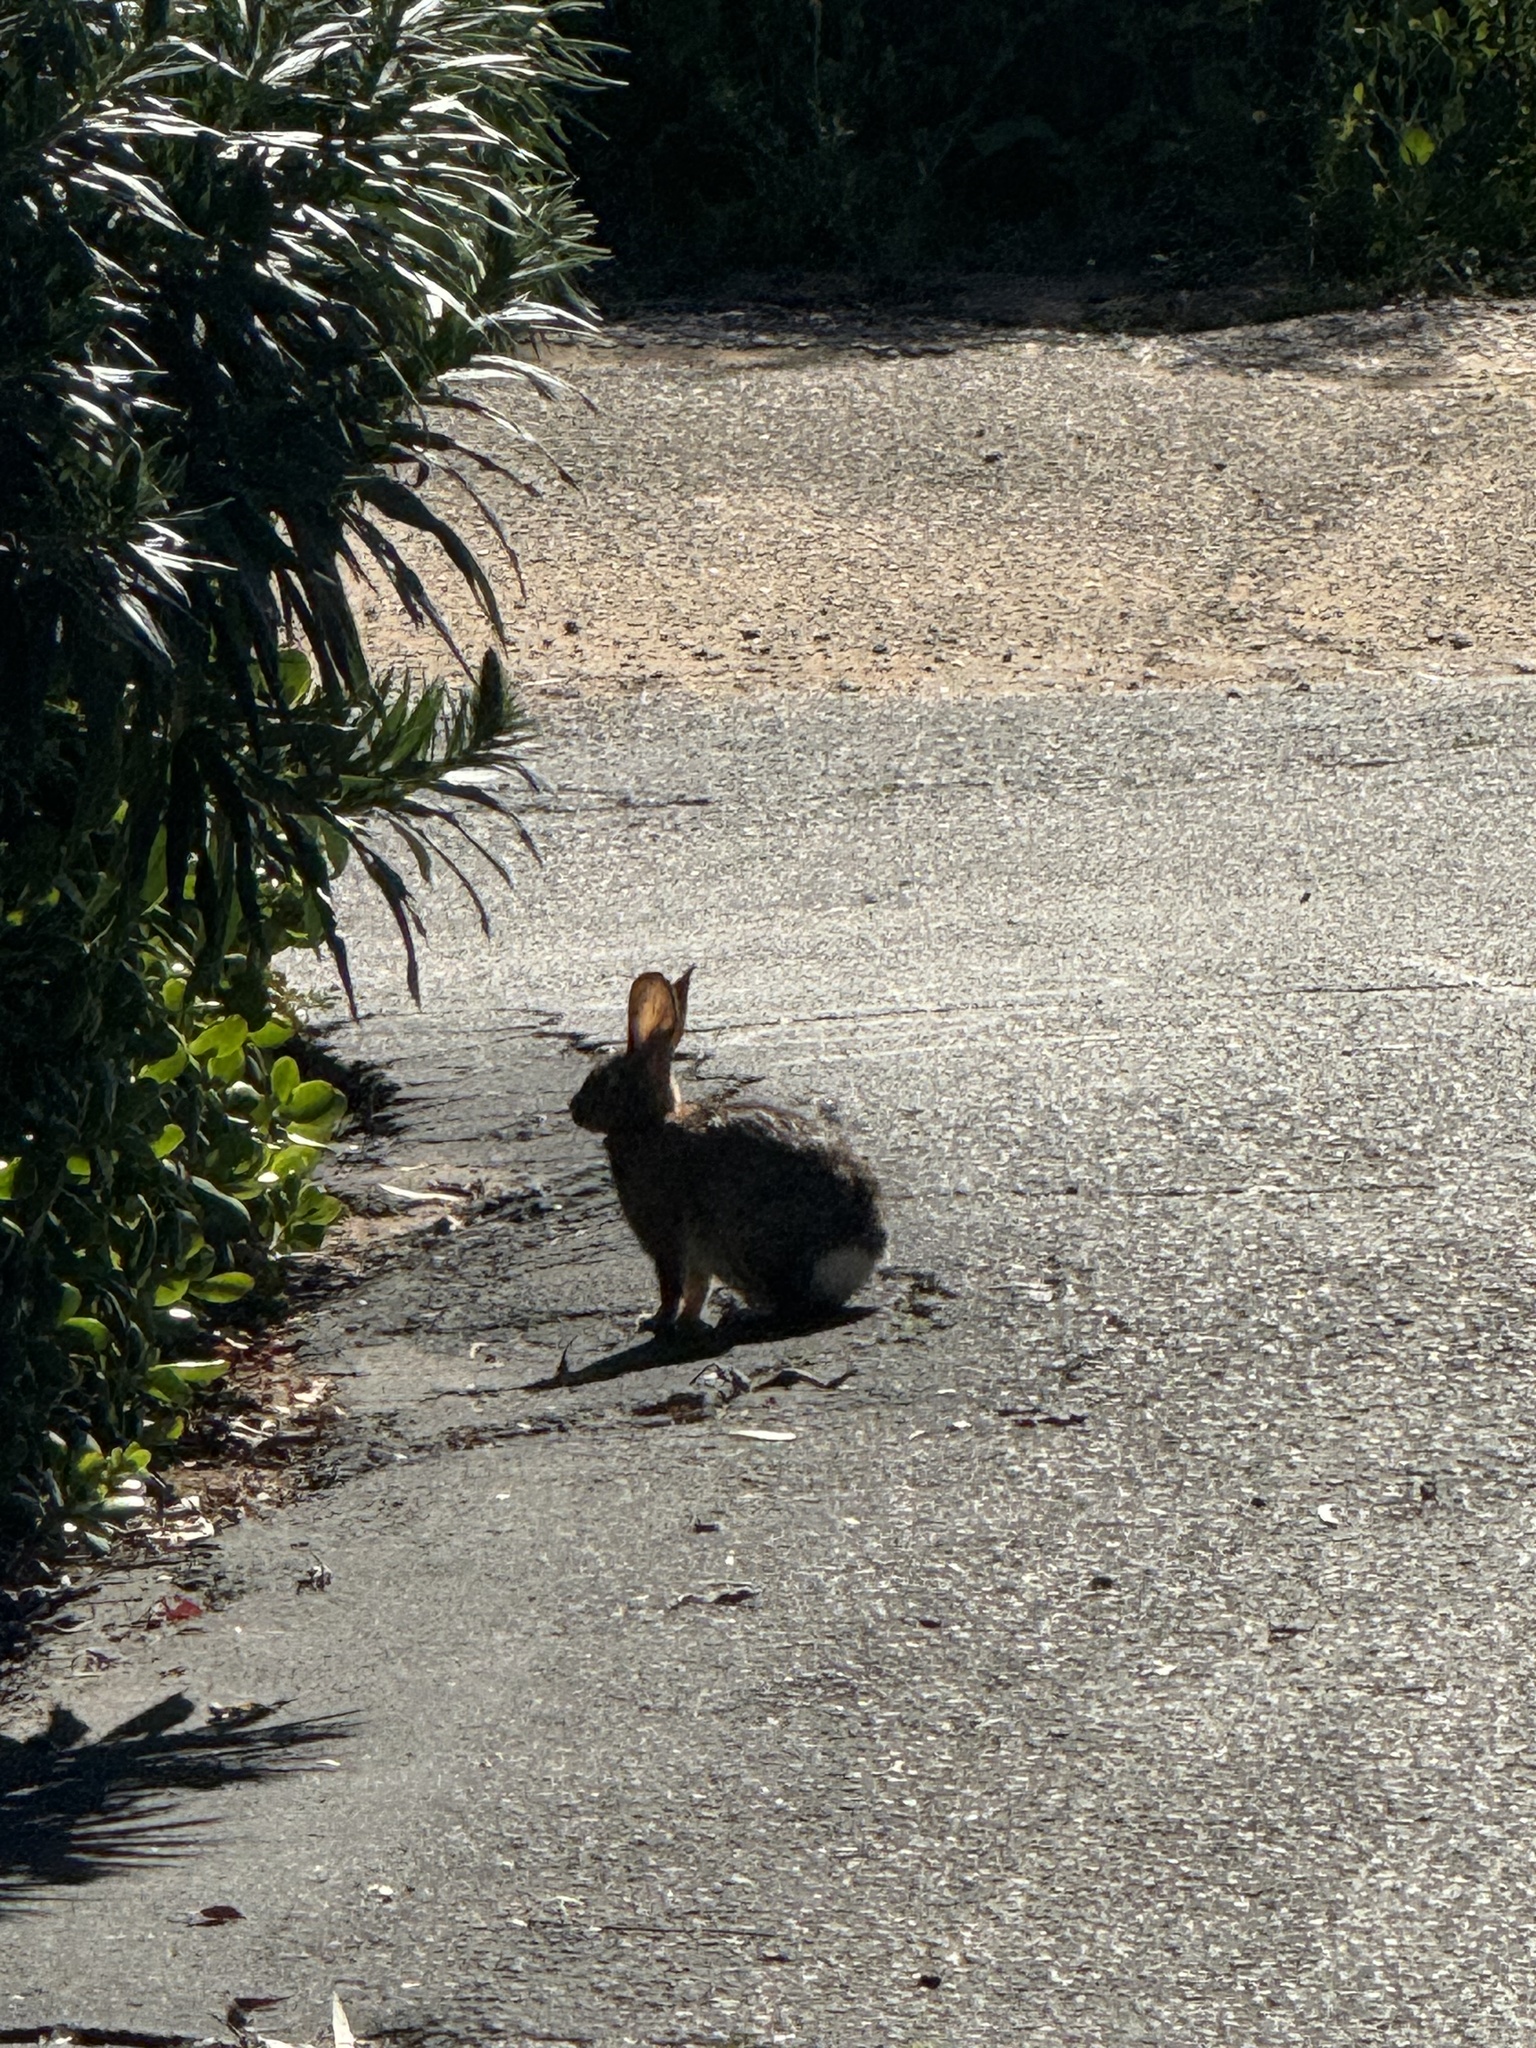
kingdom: Animalia
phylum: Chordata
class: Mammalia
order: Lagomorpha
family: Leporidae
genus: Sylvilagus
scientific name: Sylvilagus audubonii
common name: Desert cottontail
